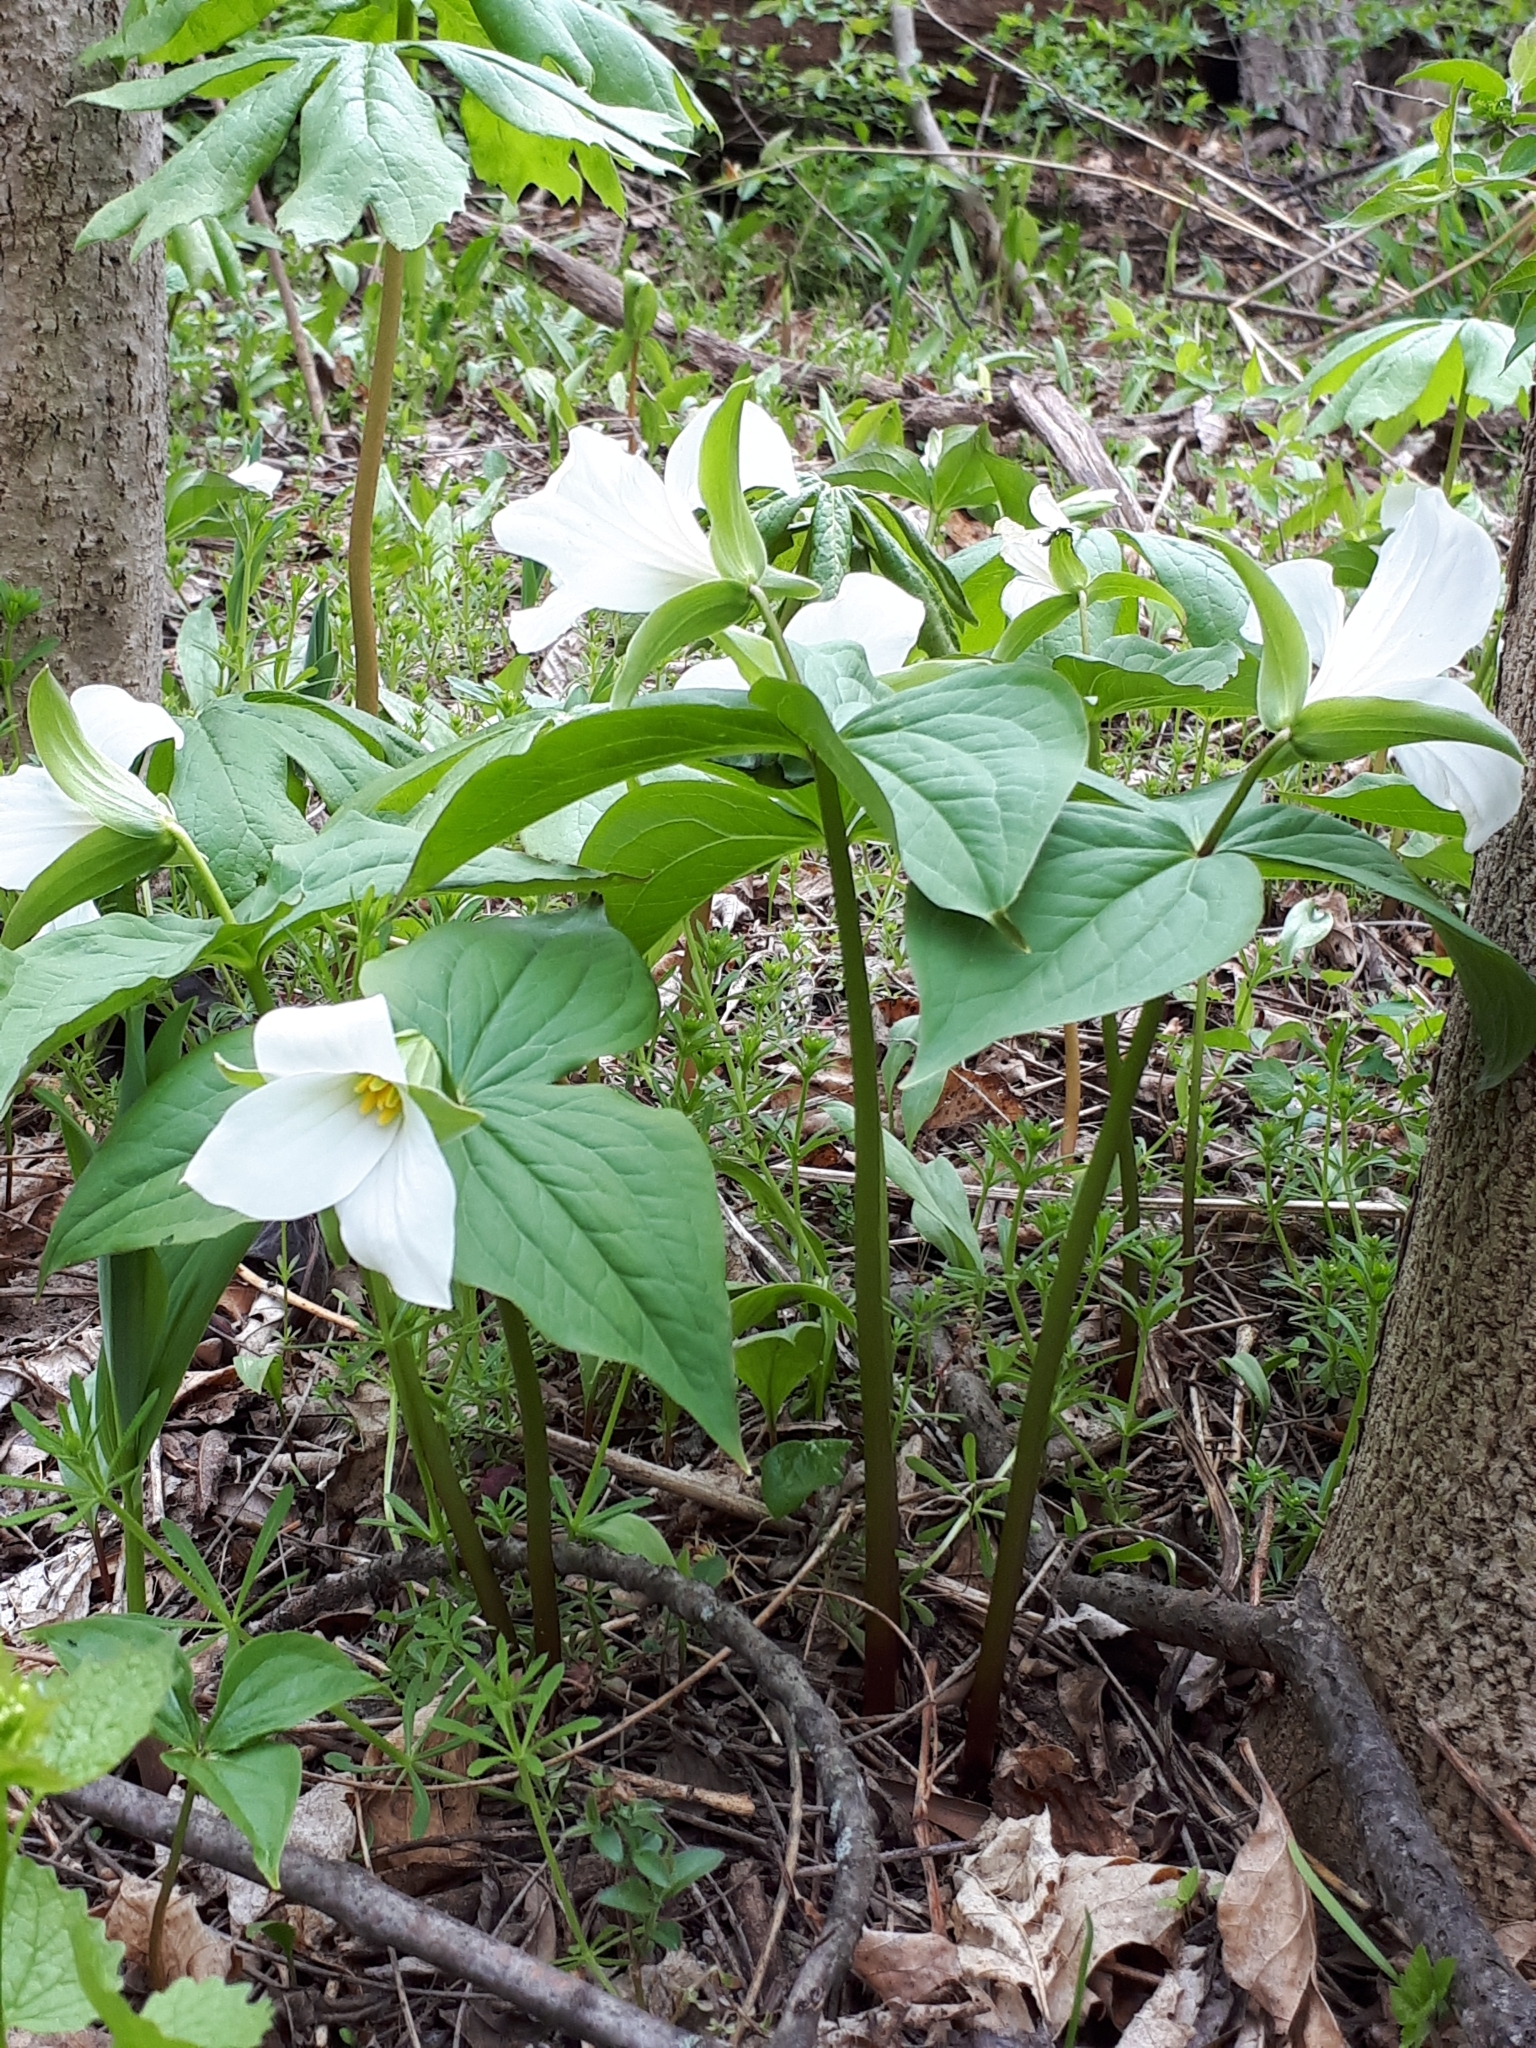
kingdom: Plantae
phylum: Tracheophyta
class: Liliopsida
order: Liliales
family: Melanthiaceae
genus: Trillium
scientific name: Trillium grandiflorum
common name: Great white trillium
